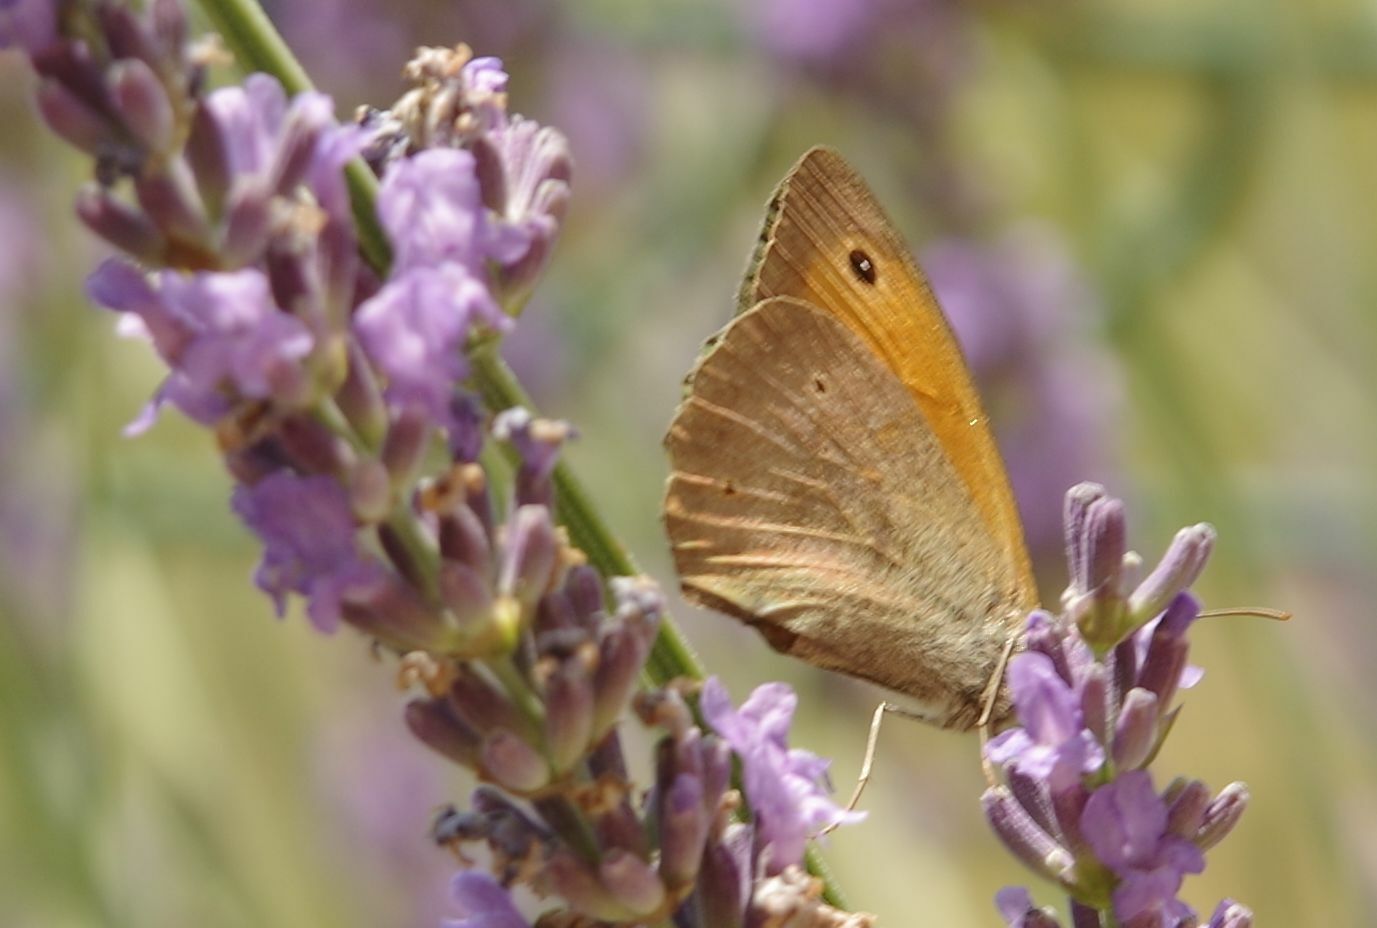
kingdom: Animalia
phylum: Arthropoda
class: Insecta
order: Lepidoptera
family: Nymphalidae
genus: Maniola
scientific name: Maniola jurtina
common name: Meadow brown
